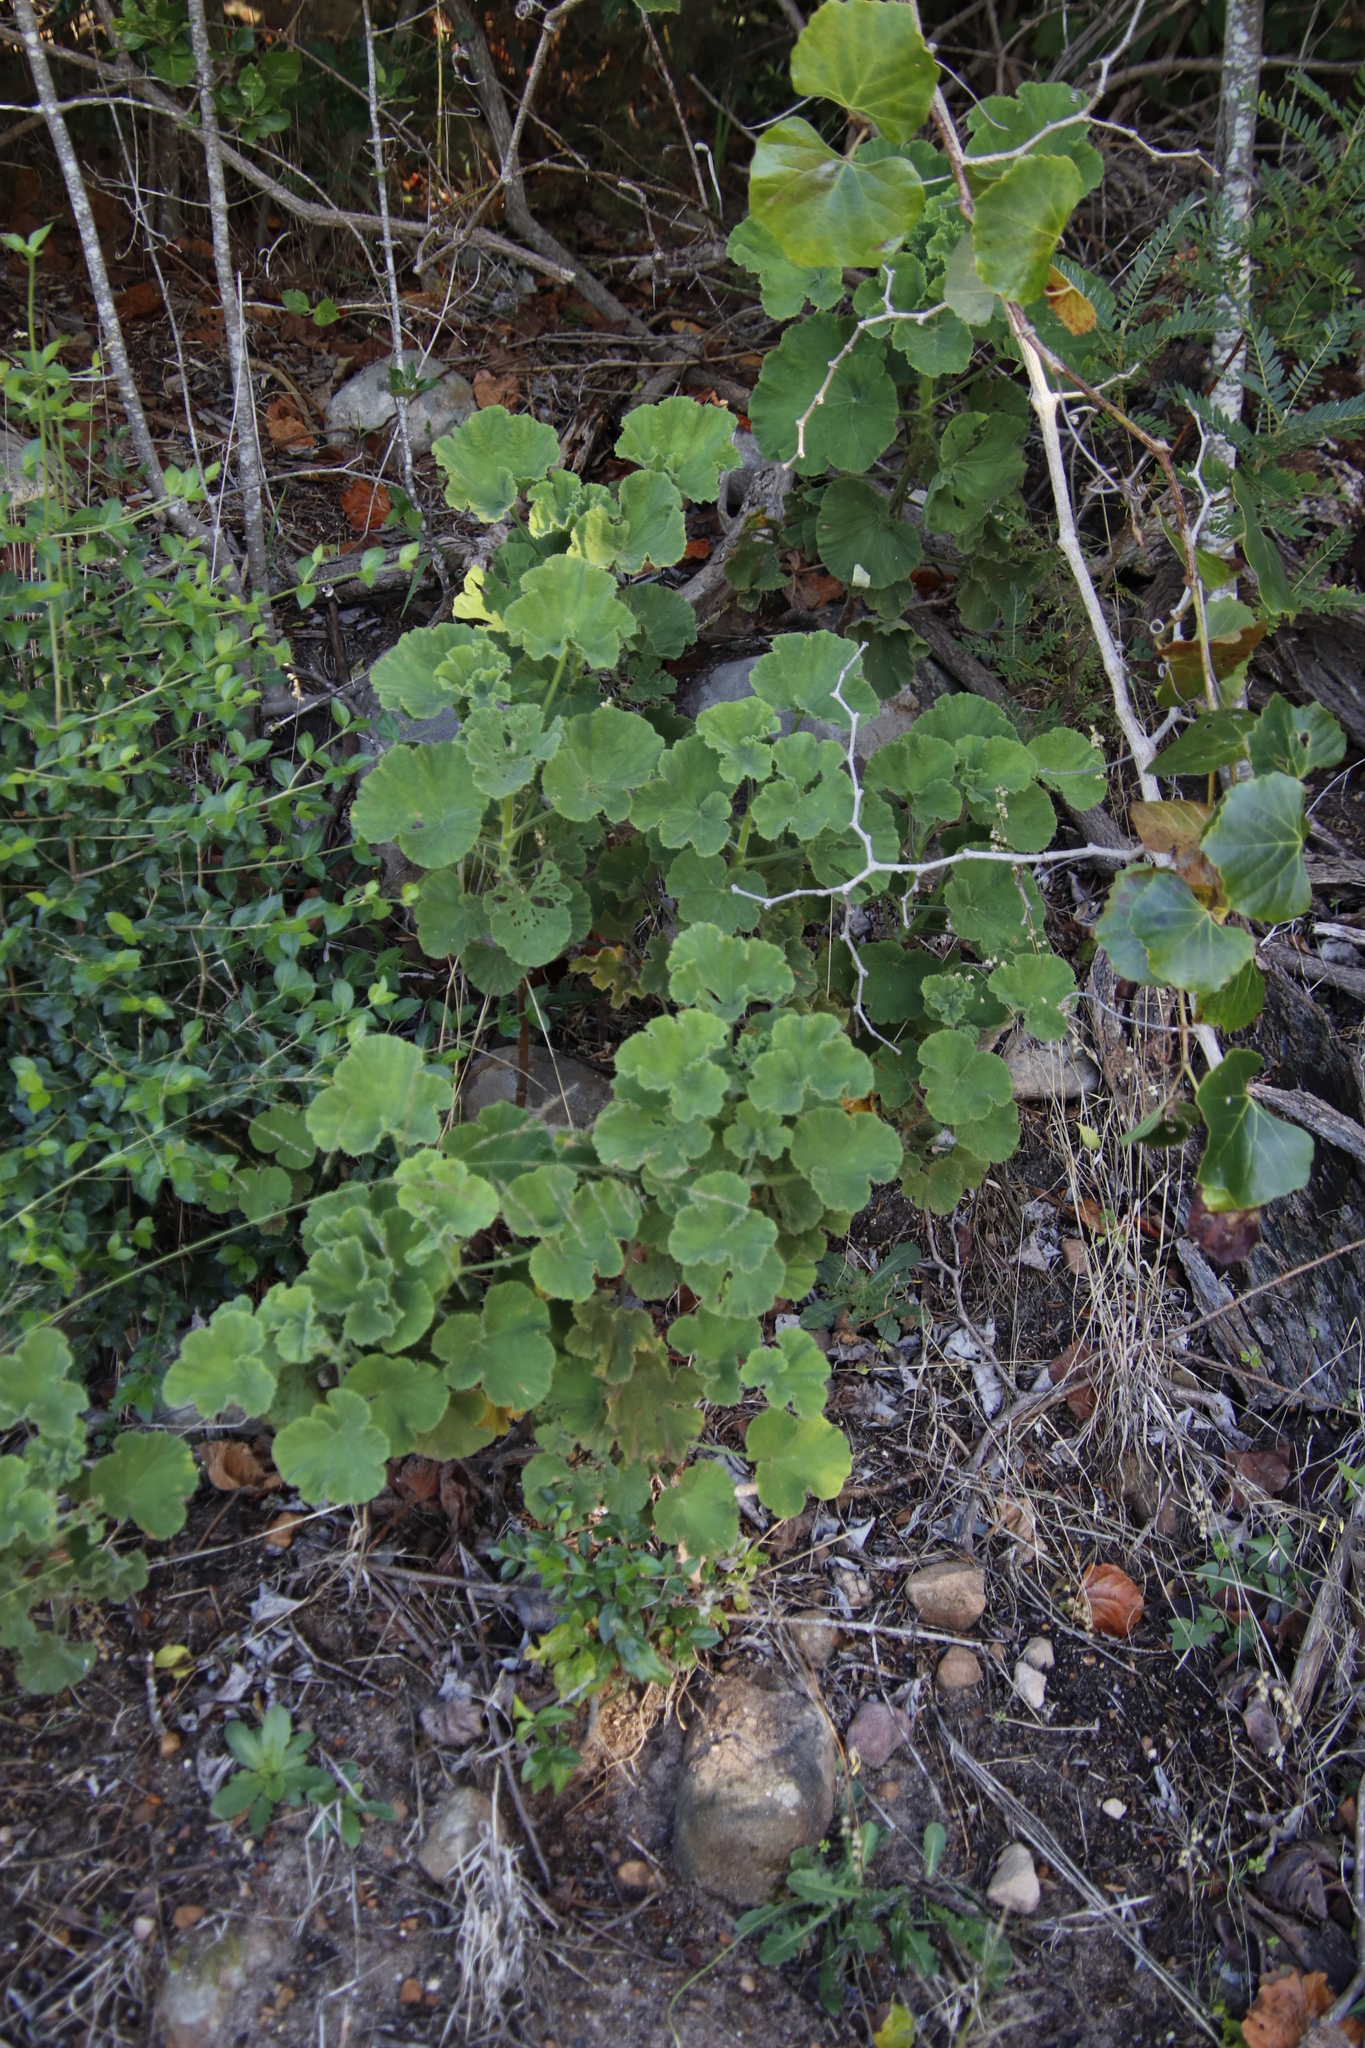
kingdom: Plantae
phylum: Tracheophyta
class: Magnoliopsida
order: Geraniales
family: Geraniaceae
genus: Pelargonium
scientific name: Pelargonium cucullatum
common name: Tree pelargonium
